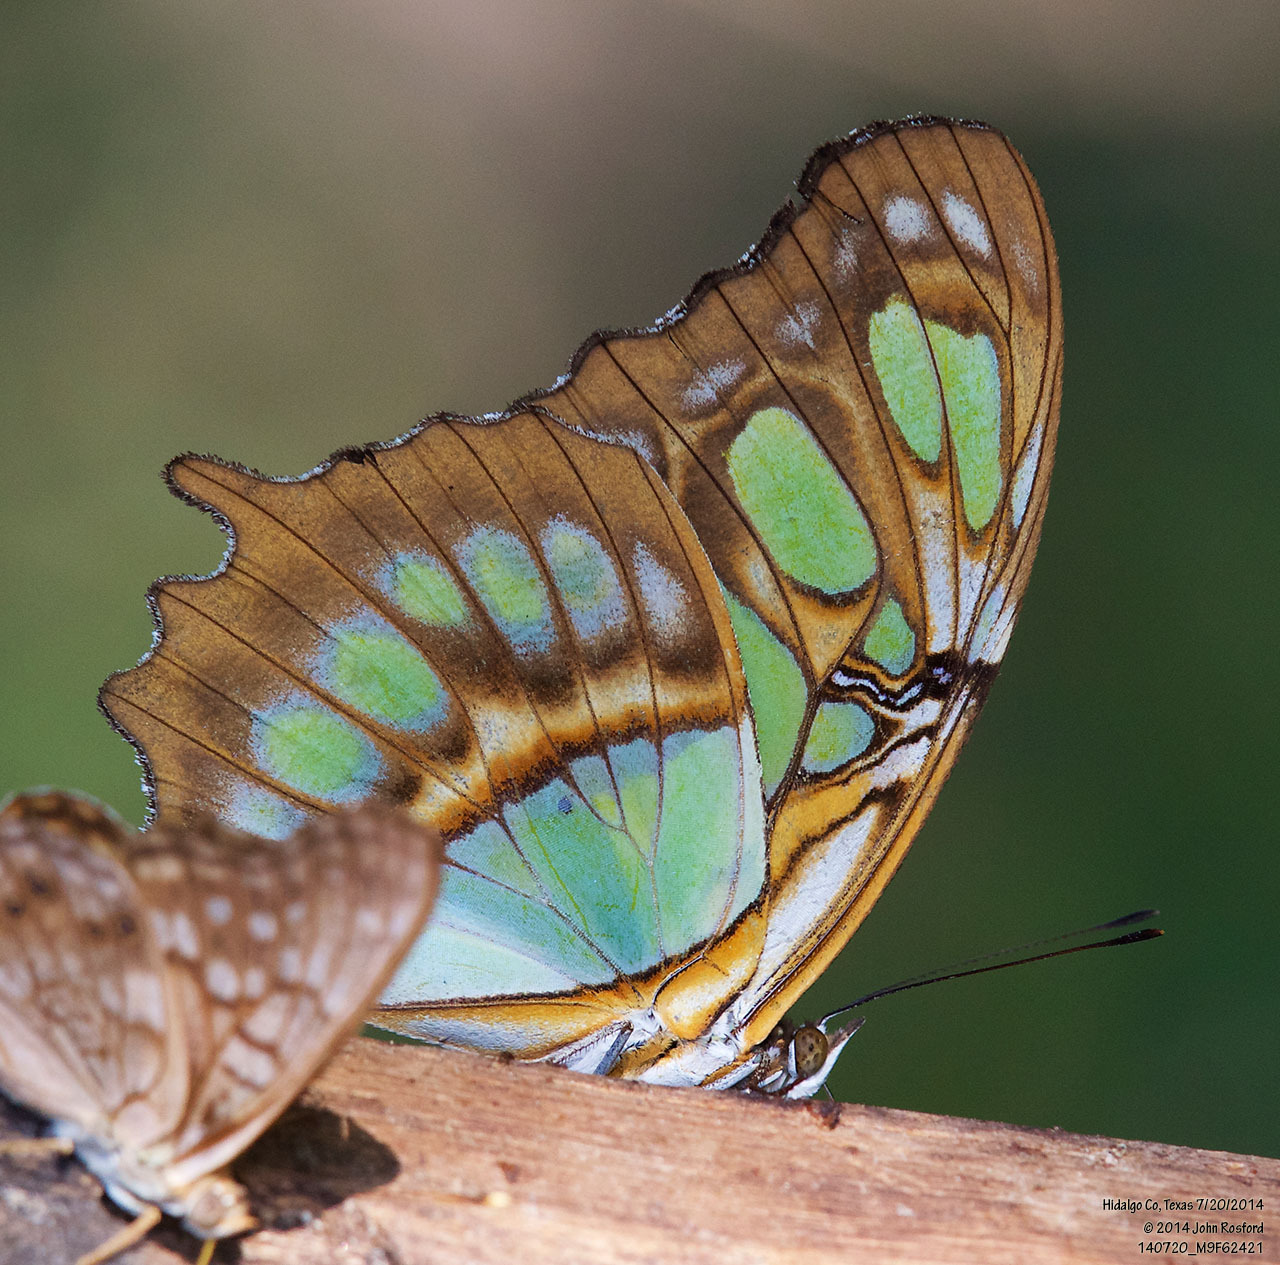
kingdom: Animalia
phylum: Arthropoda
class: Insecta
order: Lepidoptera
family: Nymphalidae
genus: Siproeta
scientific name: Siproeta stelenes
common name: Malachite
